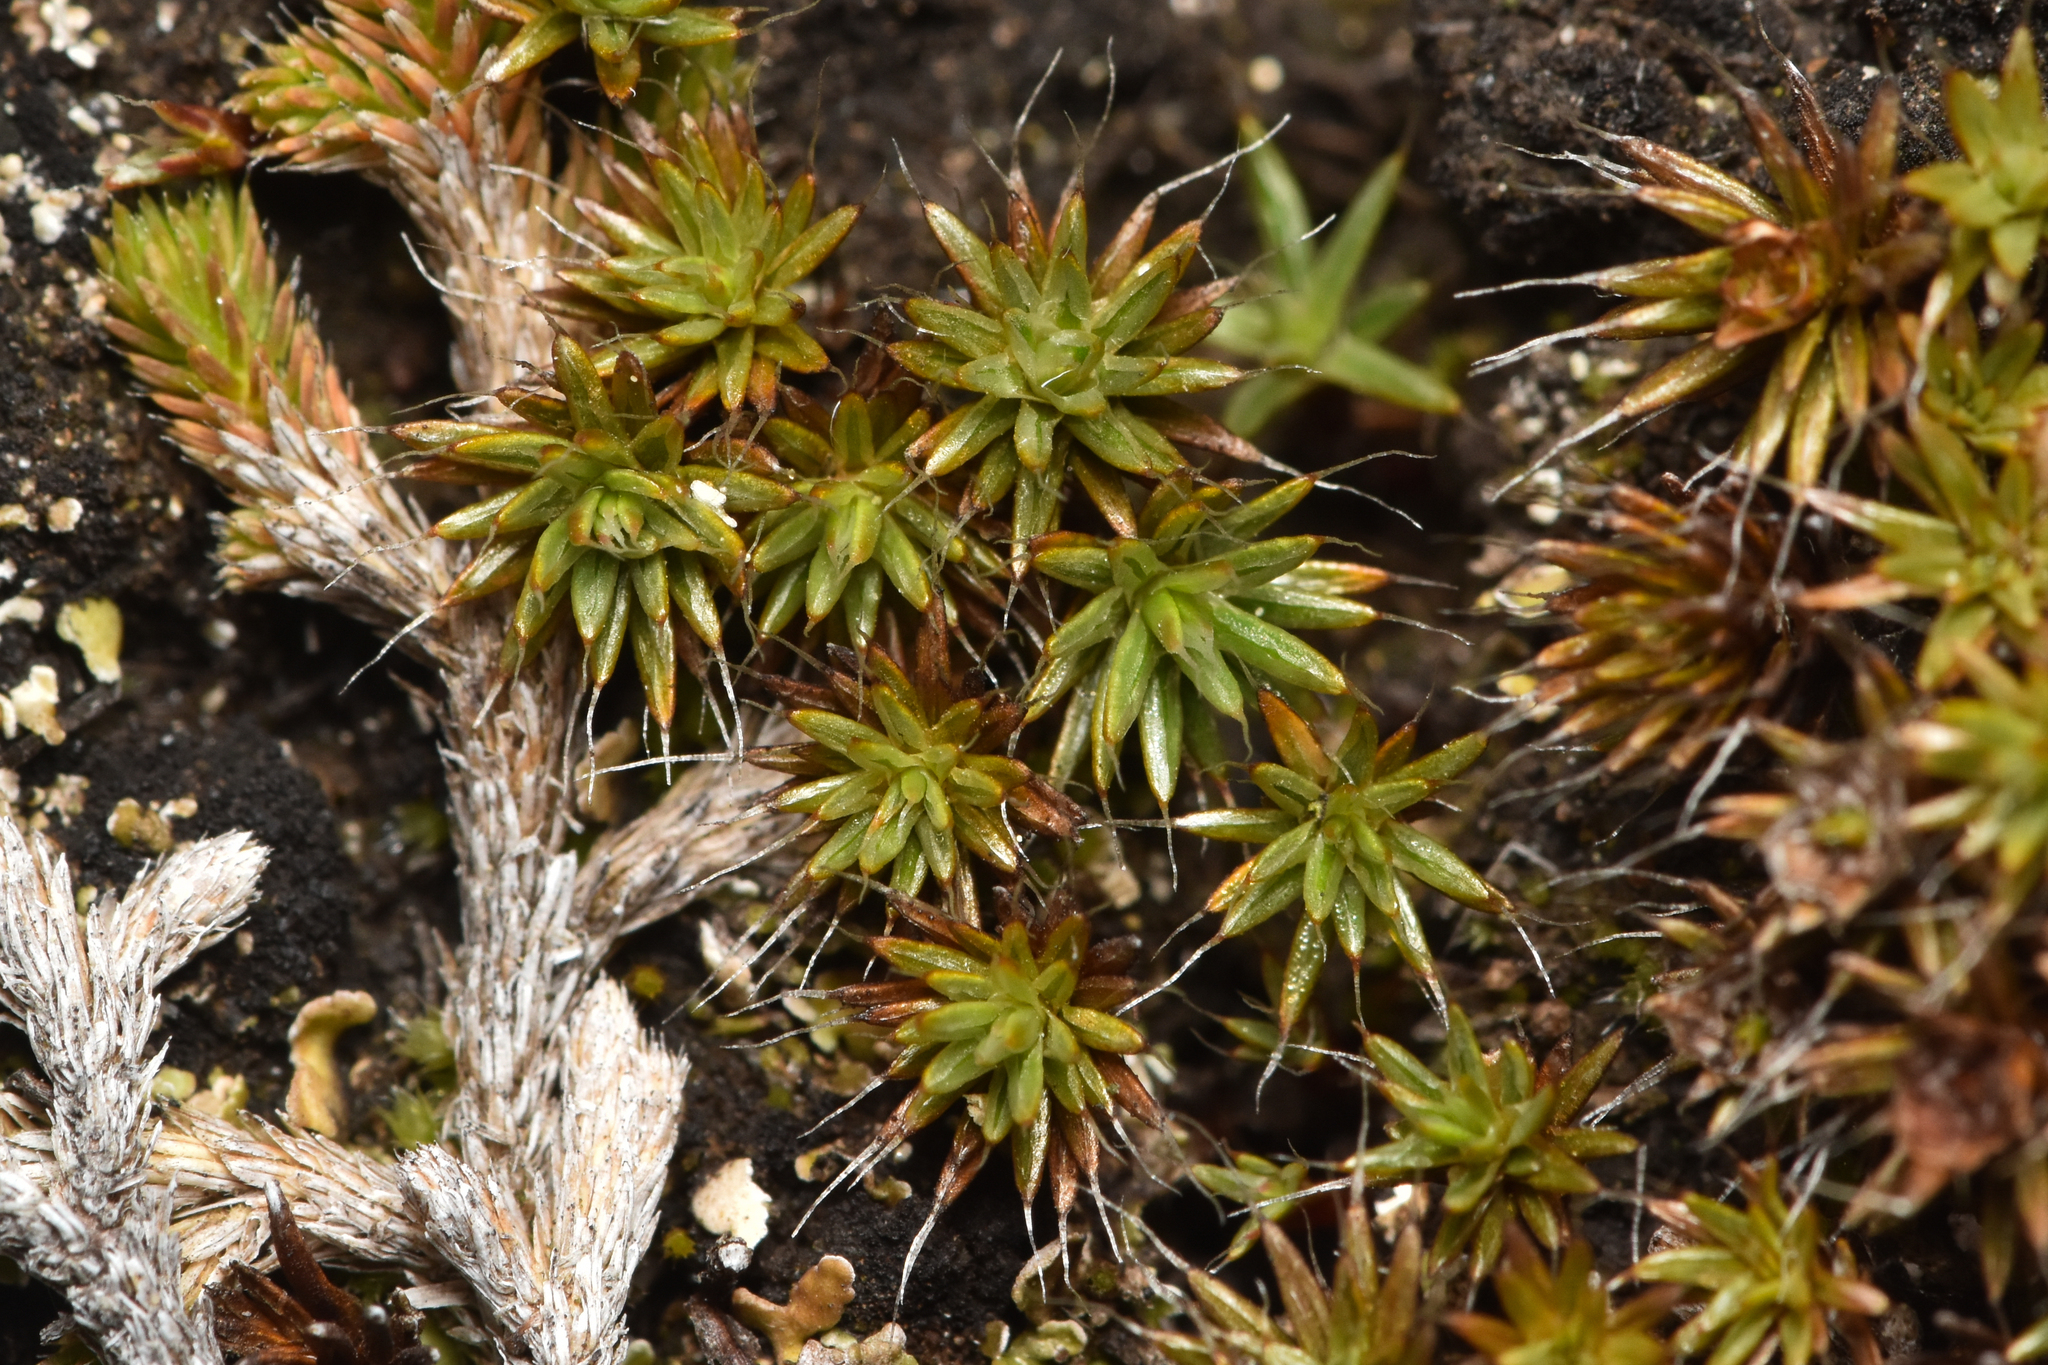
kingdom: Plantae
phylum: Bryophyta
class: Polytrichopsida
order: Polytrichales
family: Polytrichaceae
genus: Polytrichum
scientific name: Polytrichum piliferum
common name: Bristly haircap
